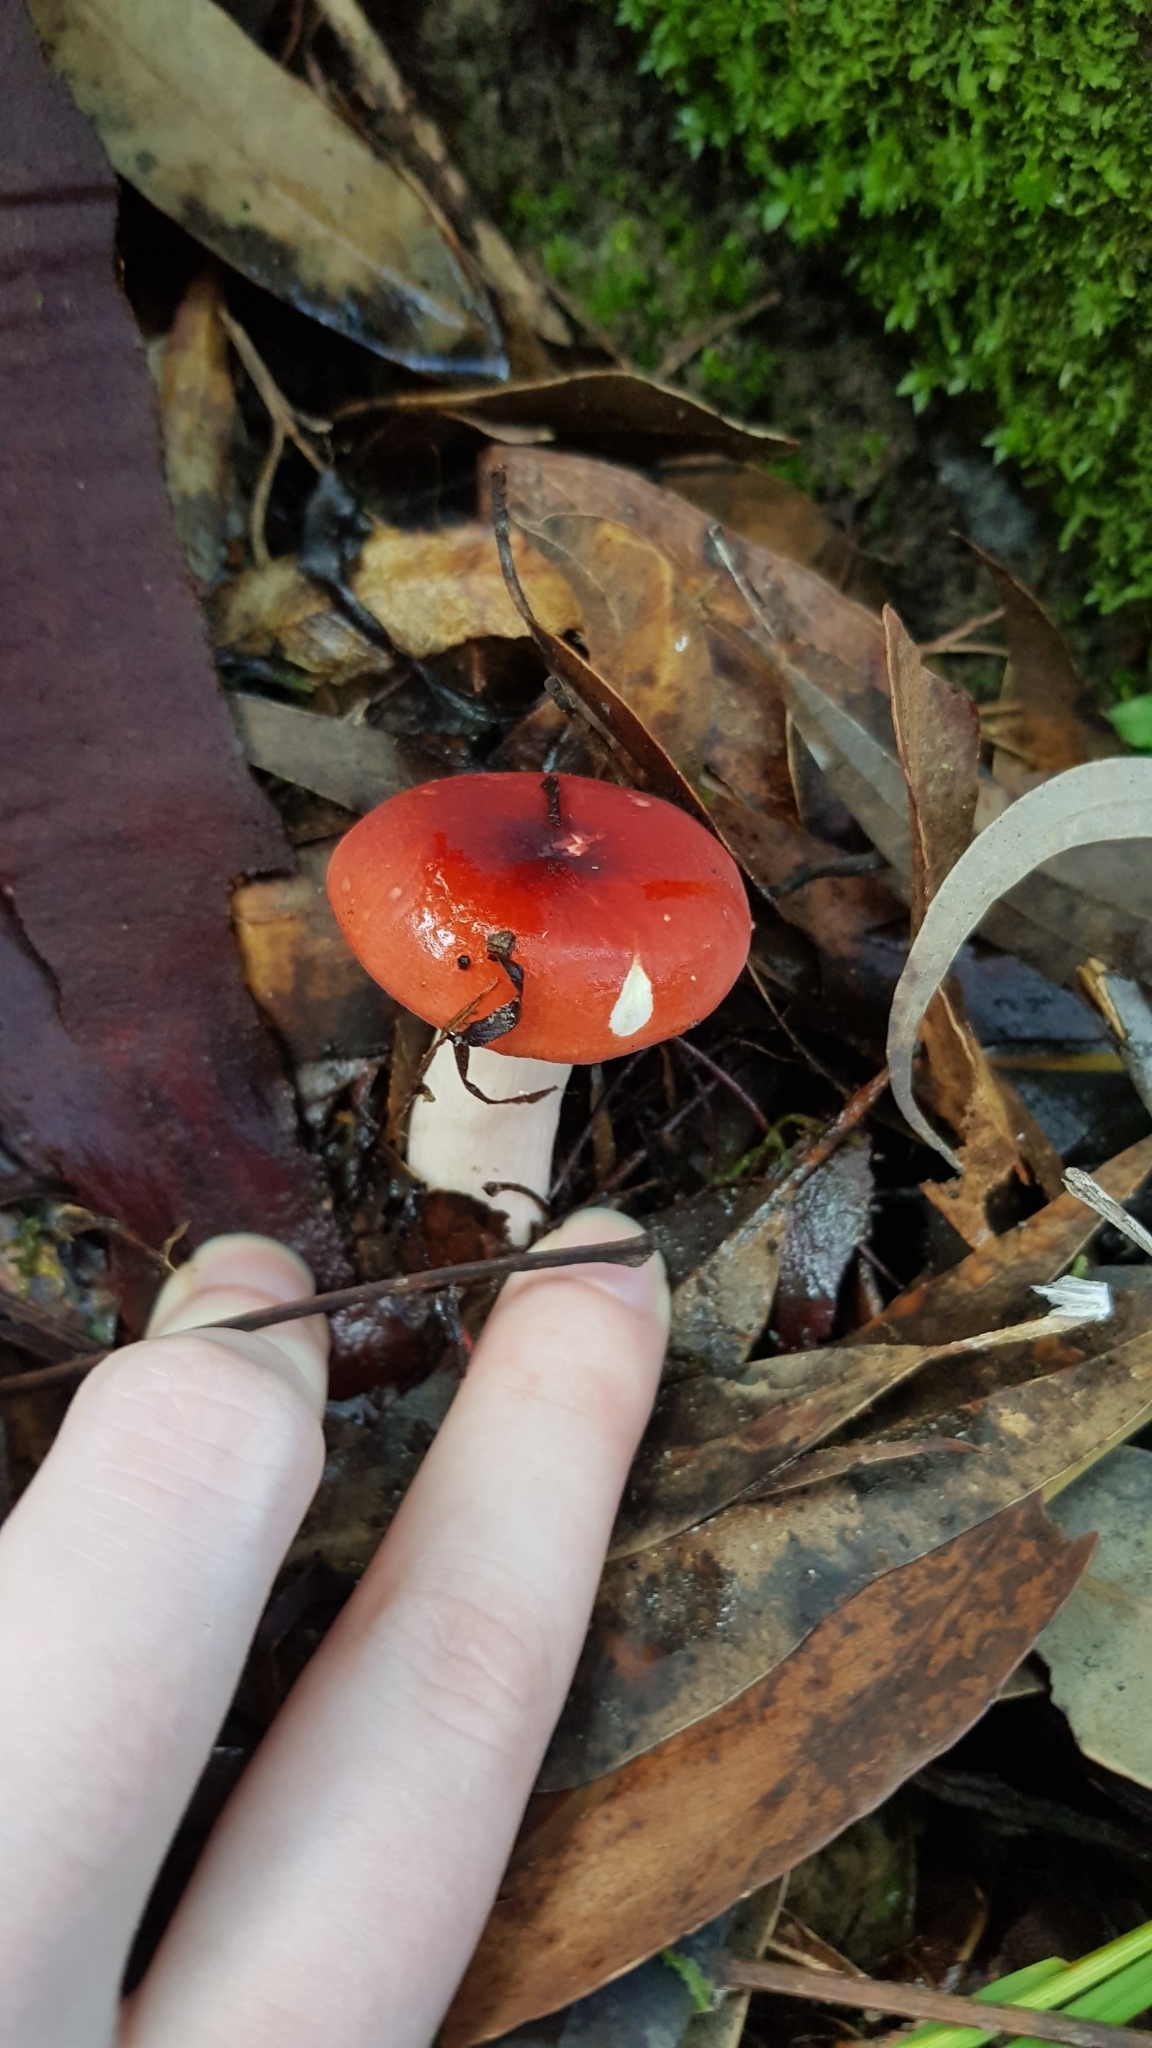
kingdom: Fungi
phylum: Basidiomycota
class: Agaricomycetes
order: Russulales
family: Russulaceae
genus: Russula
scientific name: Russula persanguinea
